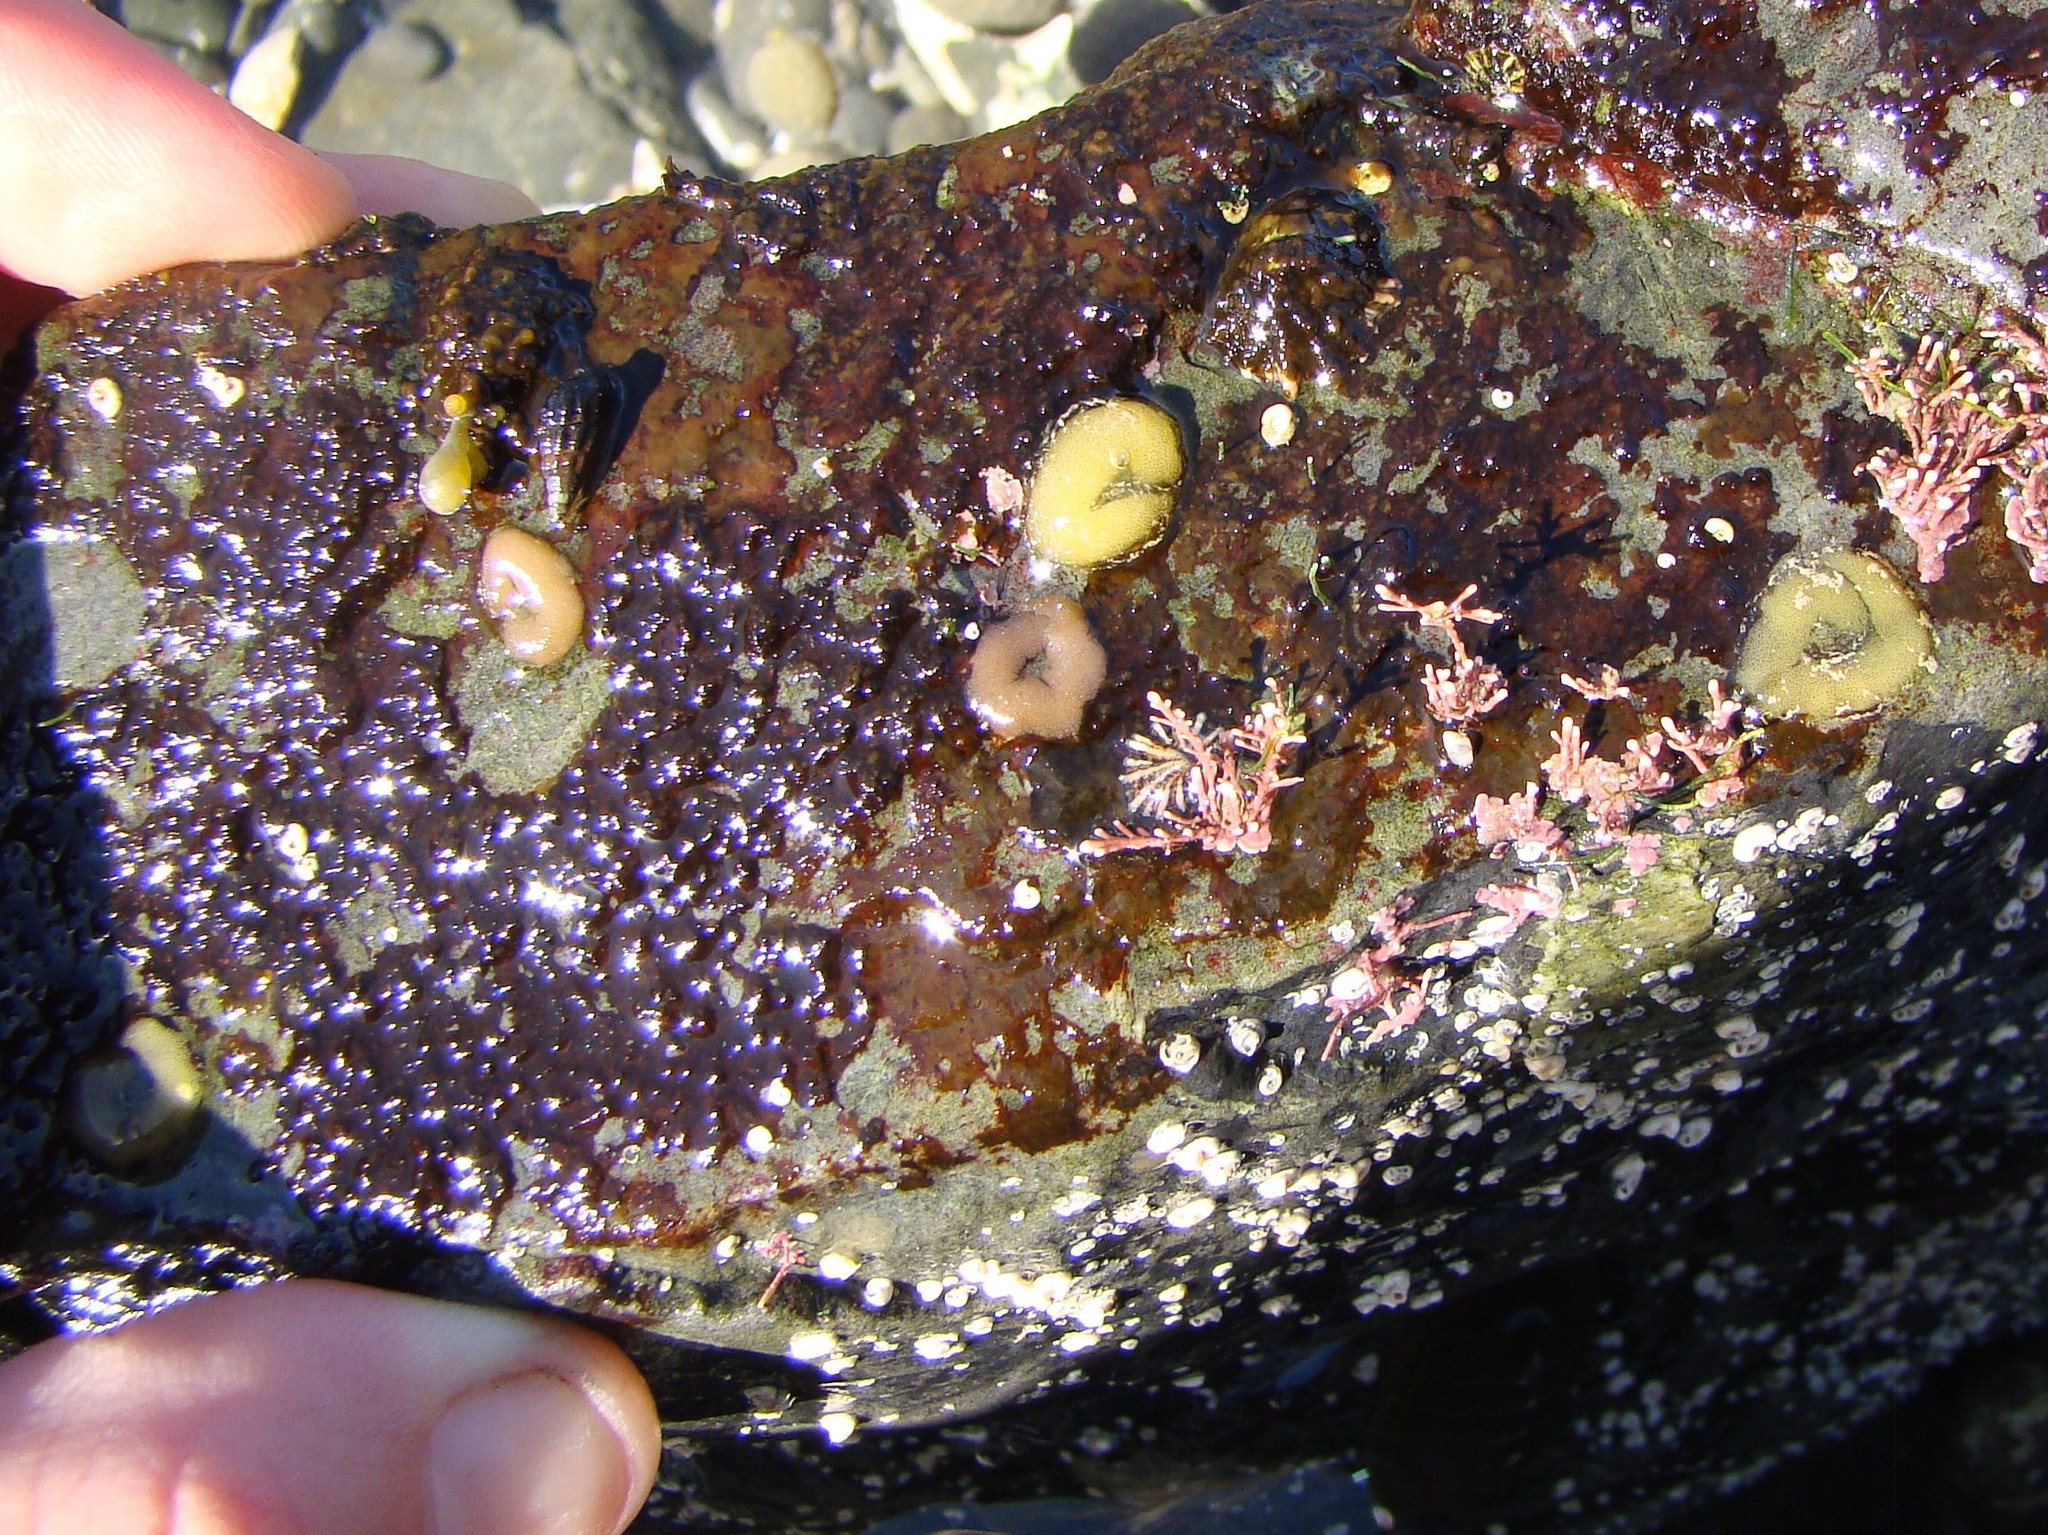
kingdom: Animalia
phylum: Mollusca
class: Gastropoda
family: Lottiidae
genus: Patelloida
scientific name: Patelloida corticata
